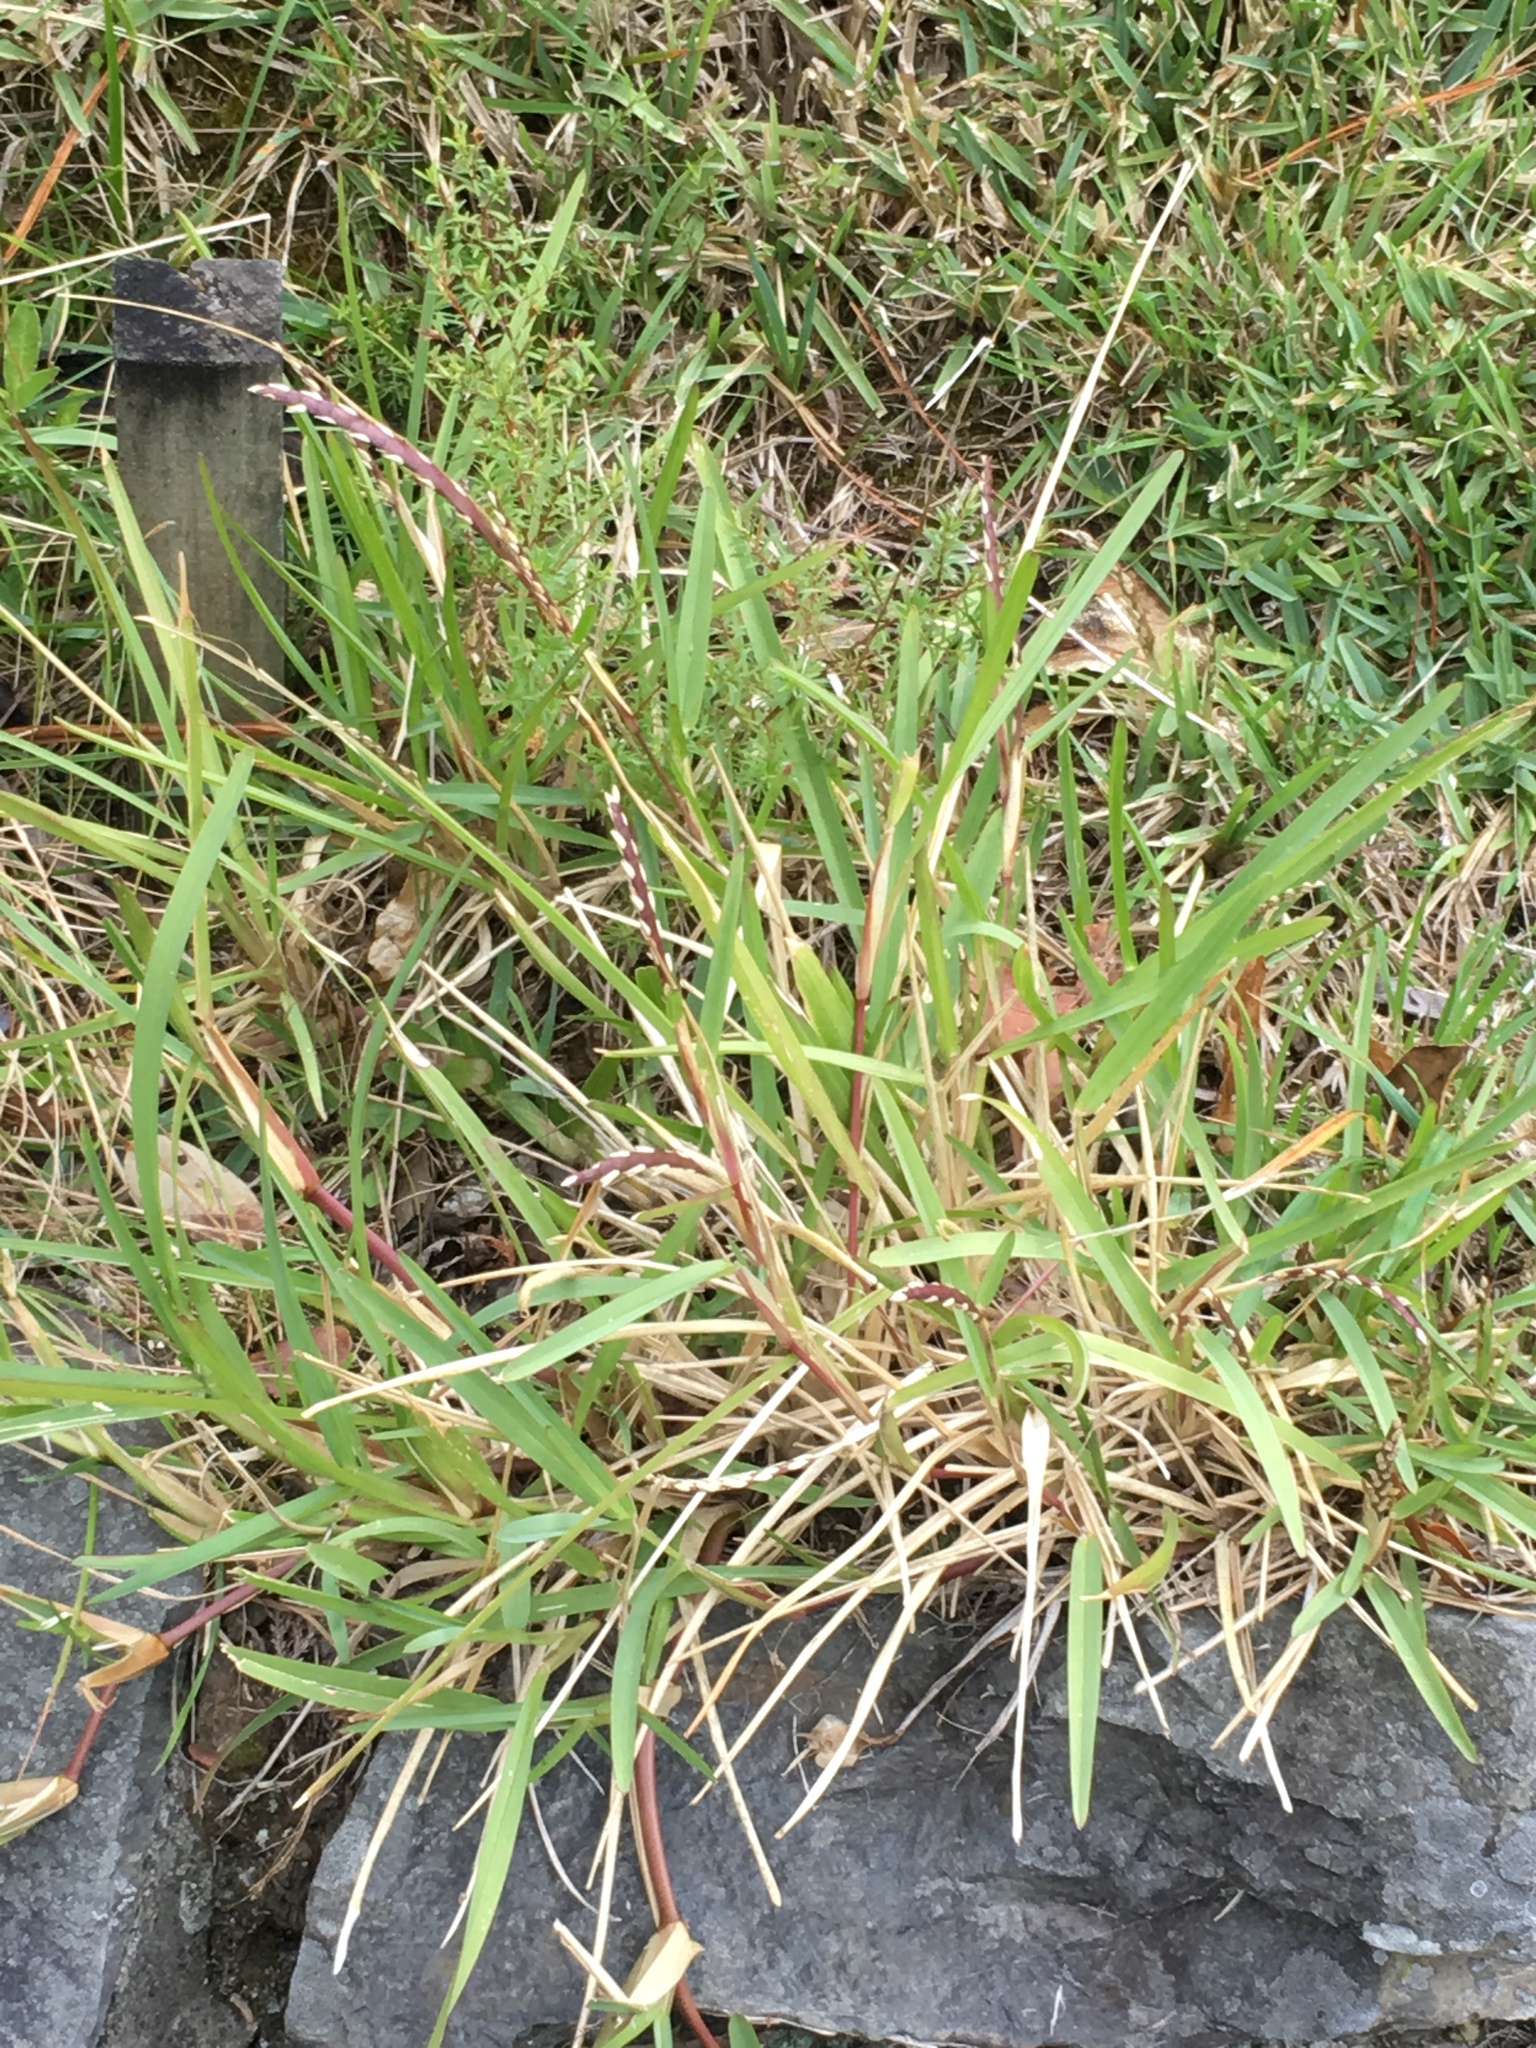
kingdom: Plantae
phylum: Tracheophyta
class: Liliopsida
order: Poales
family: Poaceae
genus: Stenotaphrum
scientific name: Stenotaphrum secundatum
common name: St. augustine grass
